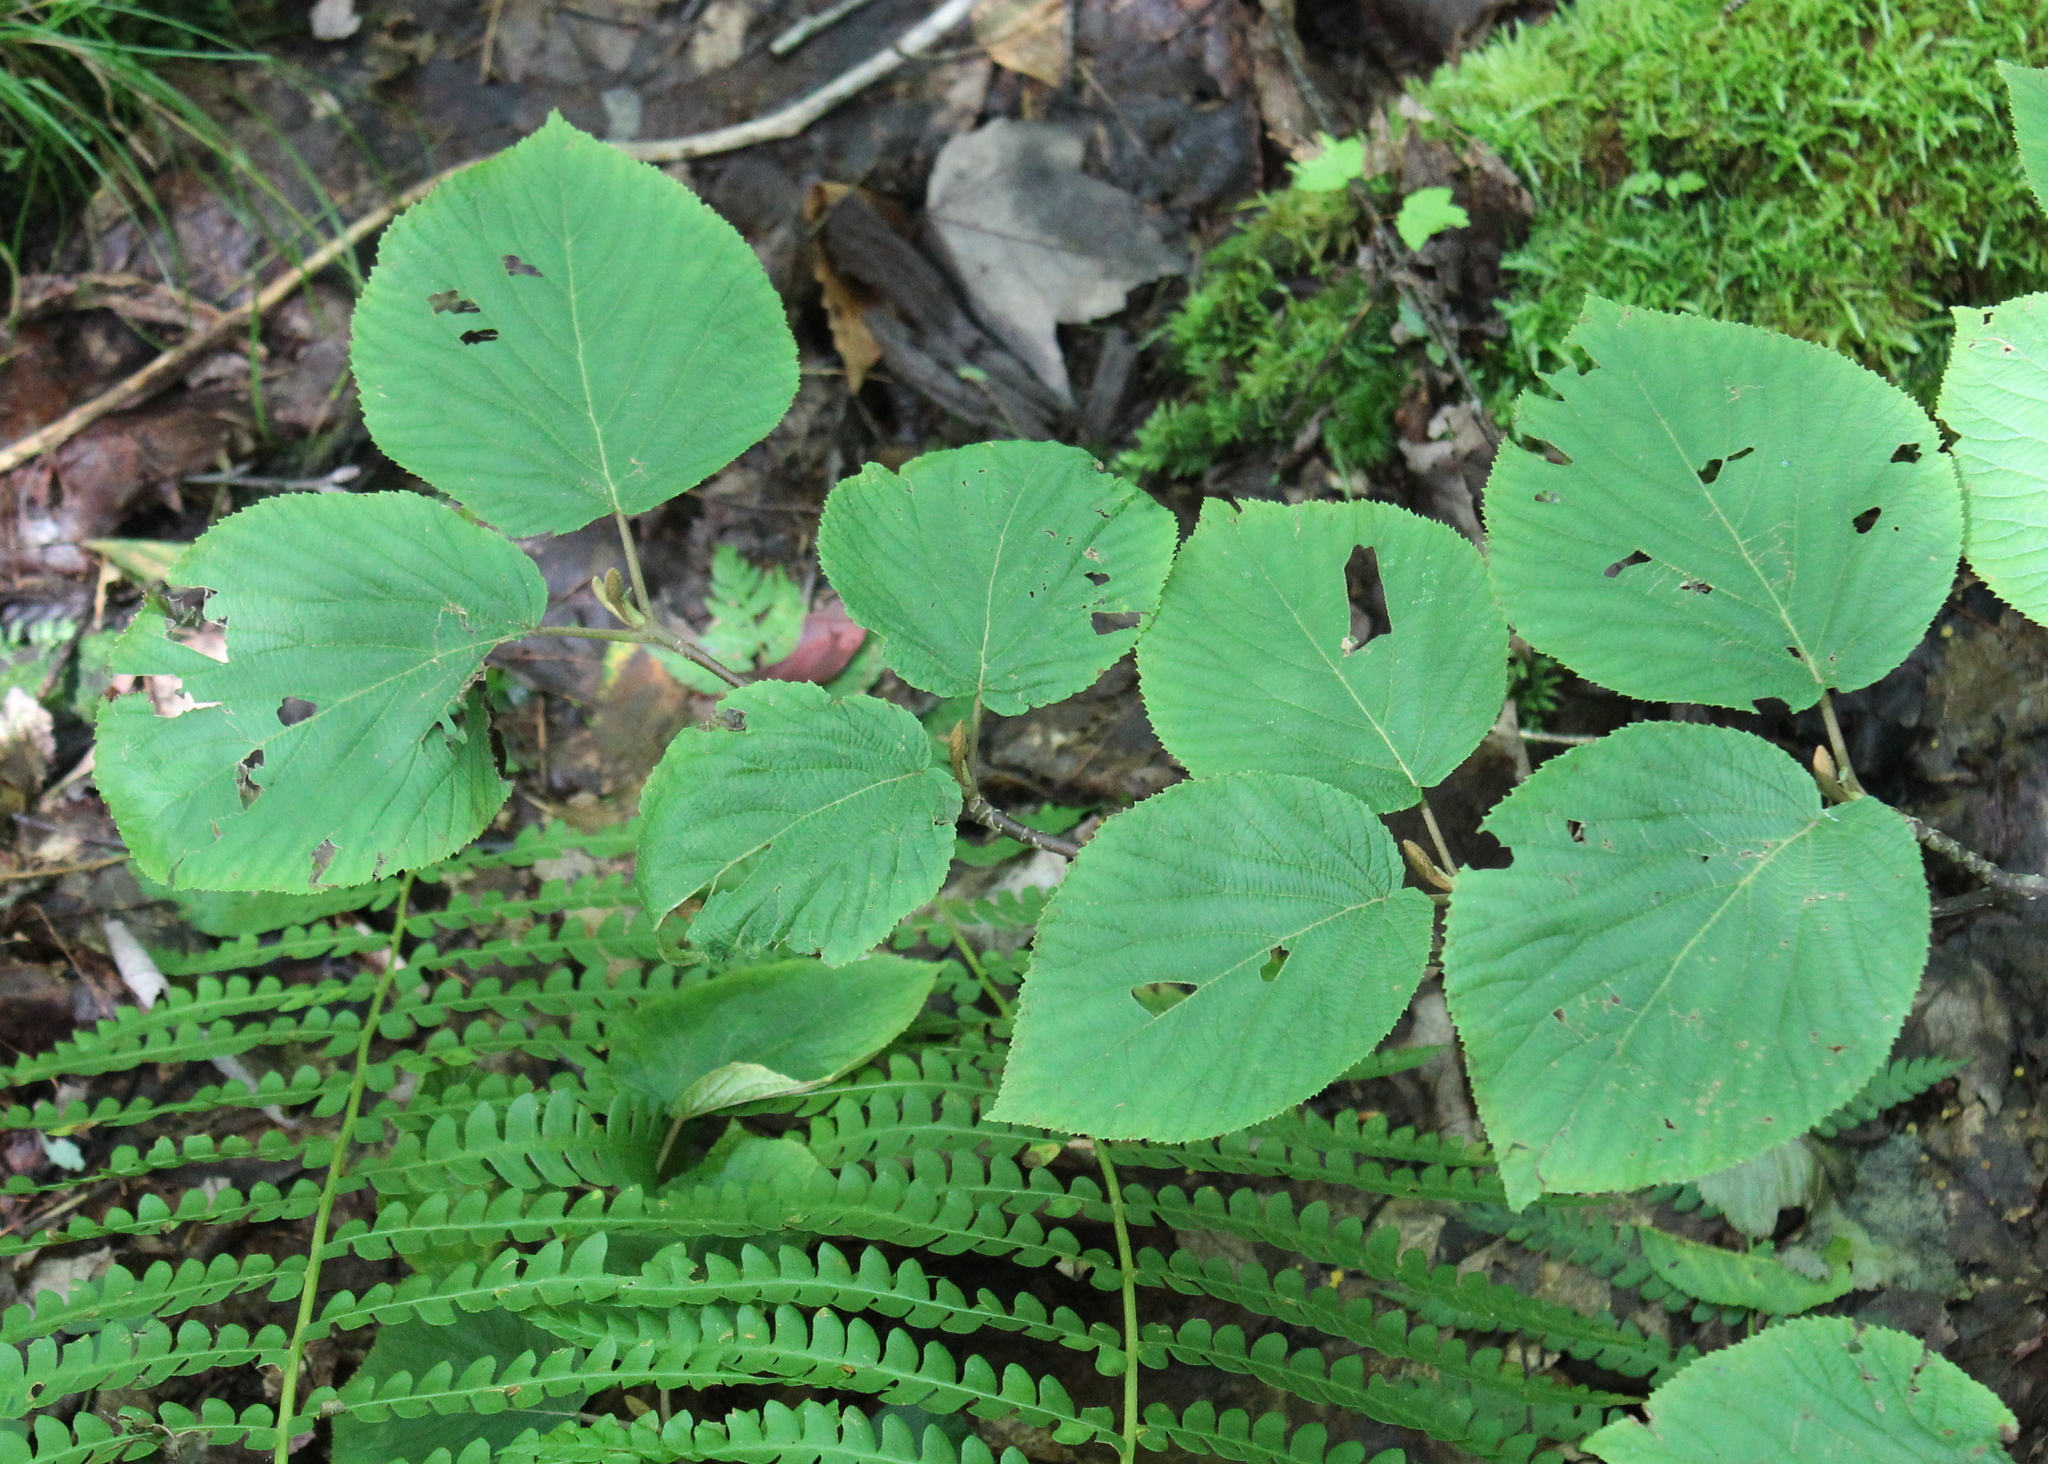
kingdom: Plantae
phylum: Tracheophyta
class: Magnoliopsida
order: Dipsacales
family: Viburnaceae
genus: Viburnum
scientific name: Viburnum lantanoides
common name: Hobblebush
